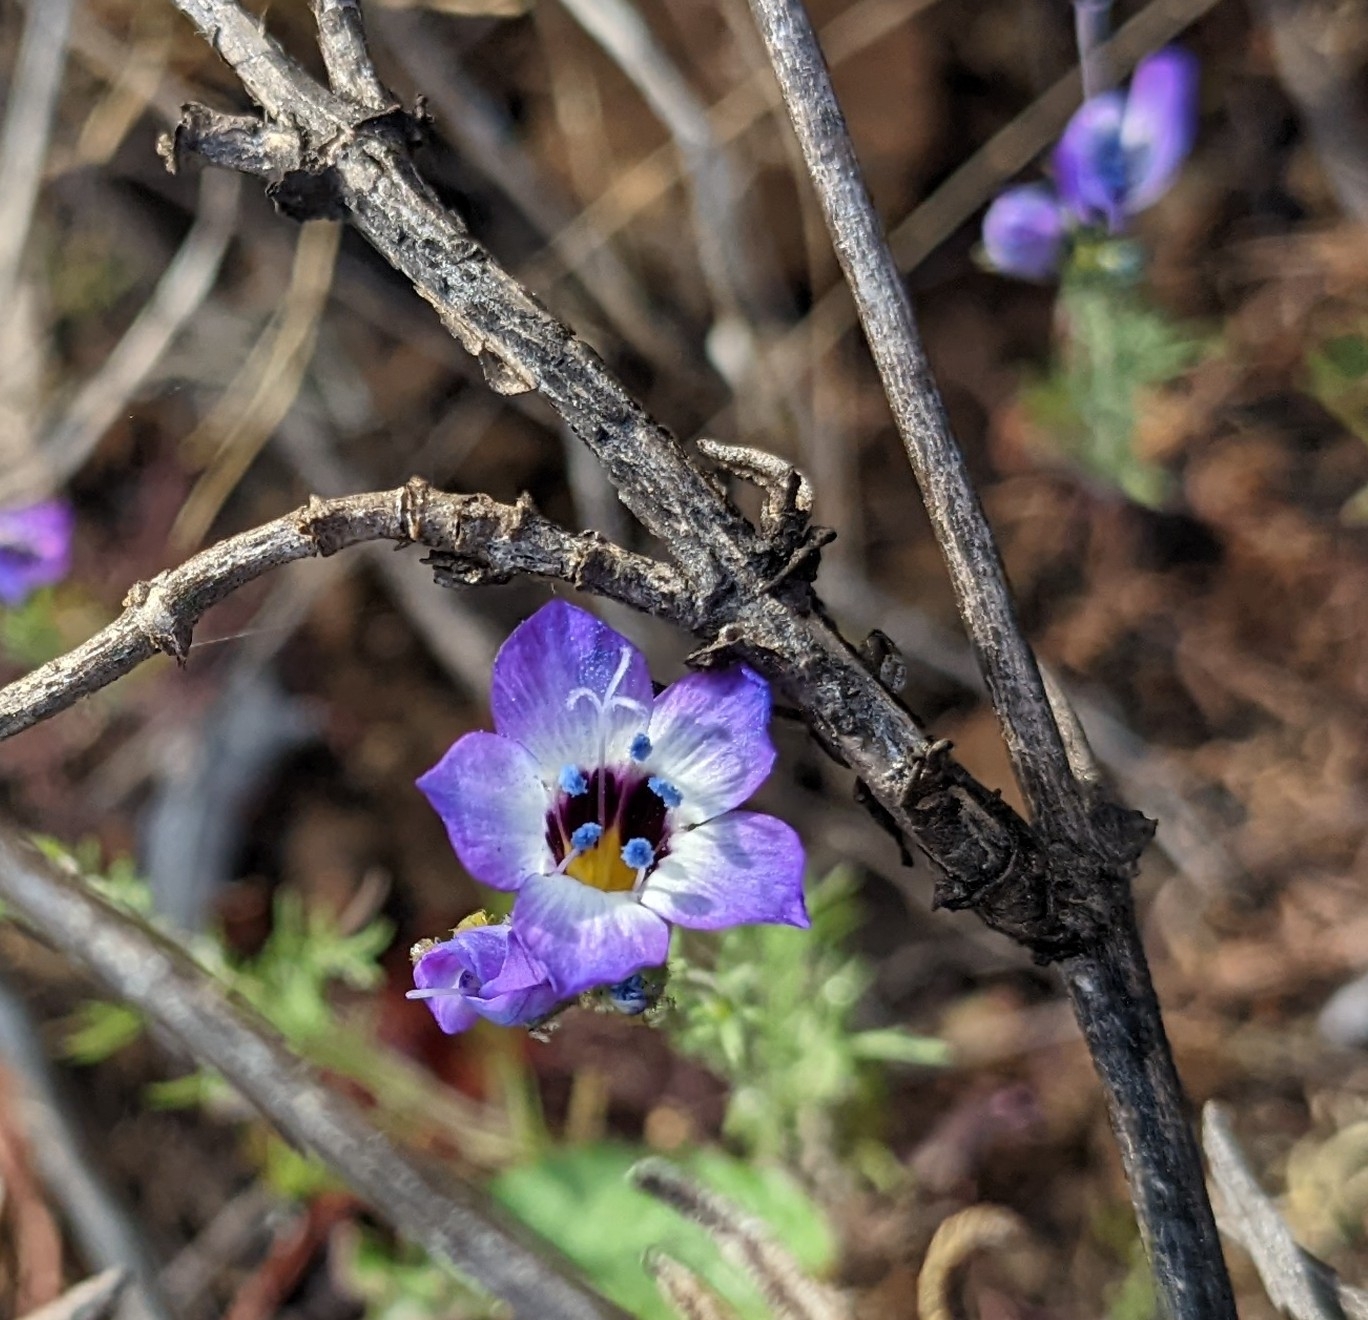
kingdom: Plantae
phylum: Tracheophyta
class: Magnoliopsida
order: Ericales
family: Polemoniaceae
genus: Gilia
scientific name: Gilia tricolor
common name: Bird's-eyes
